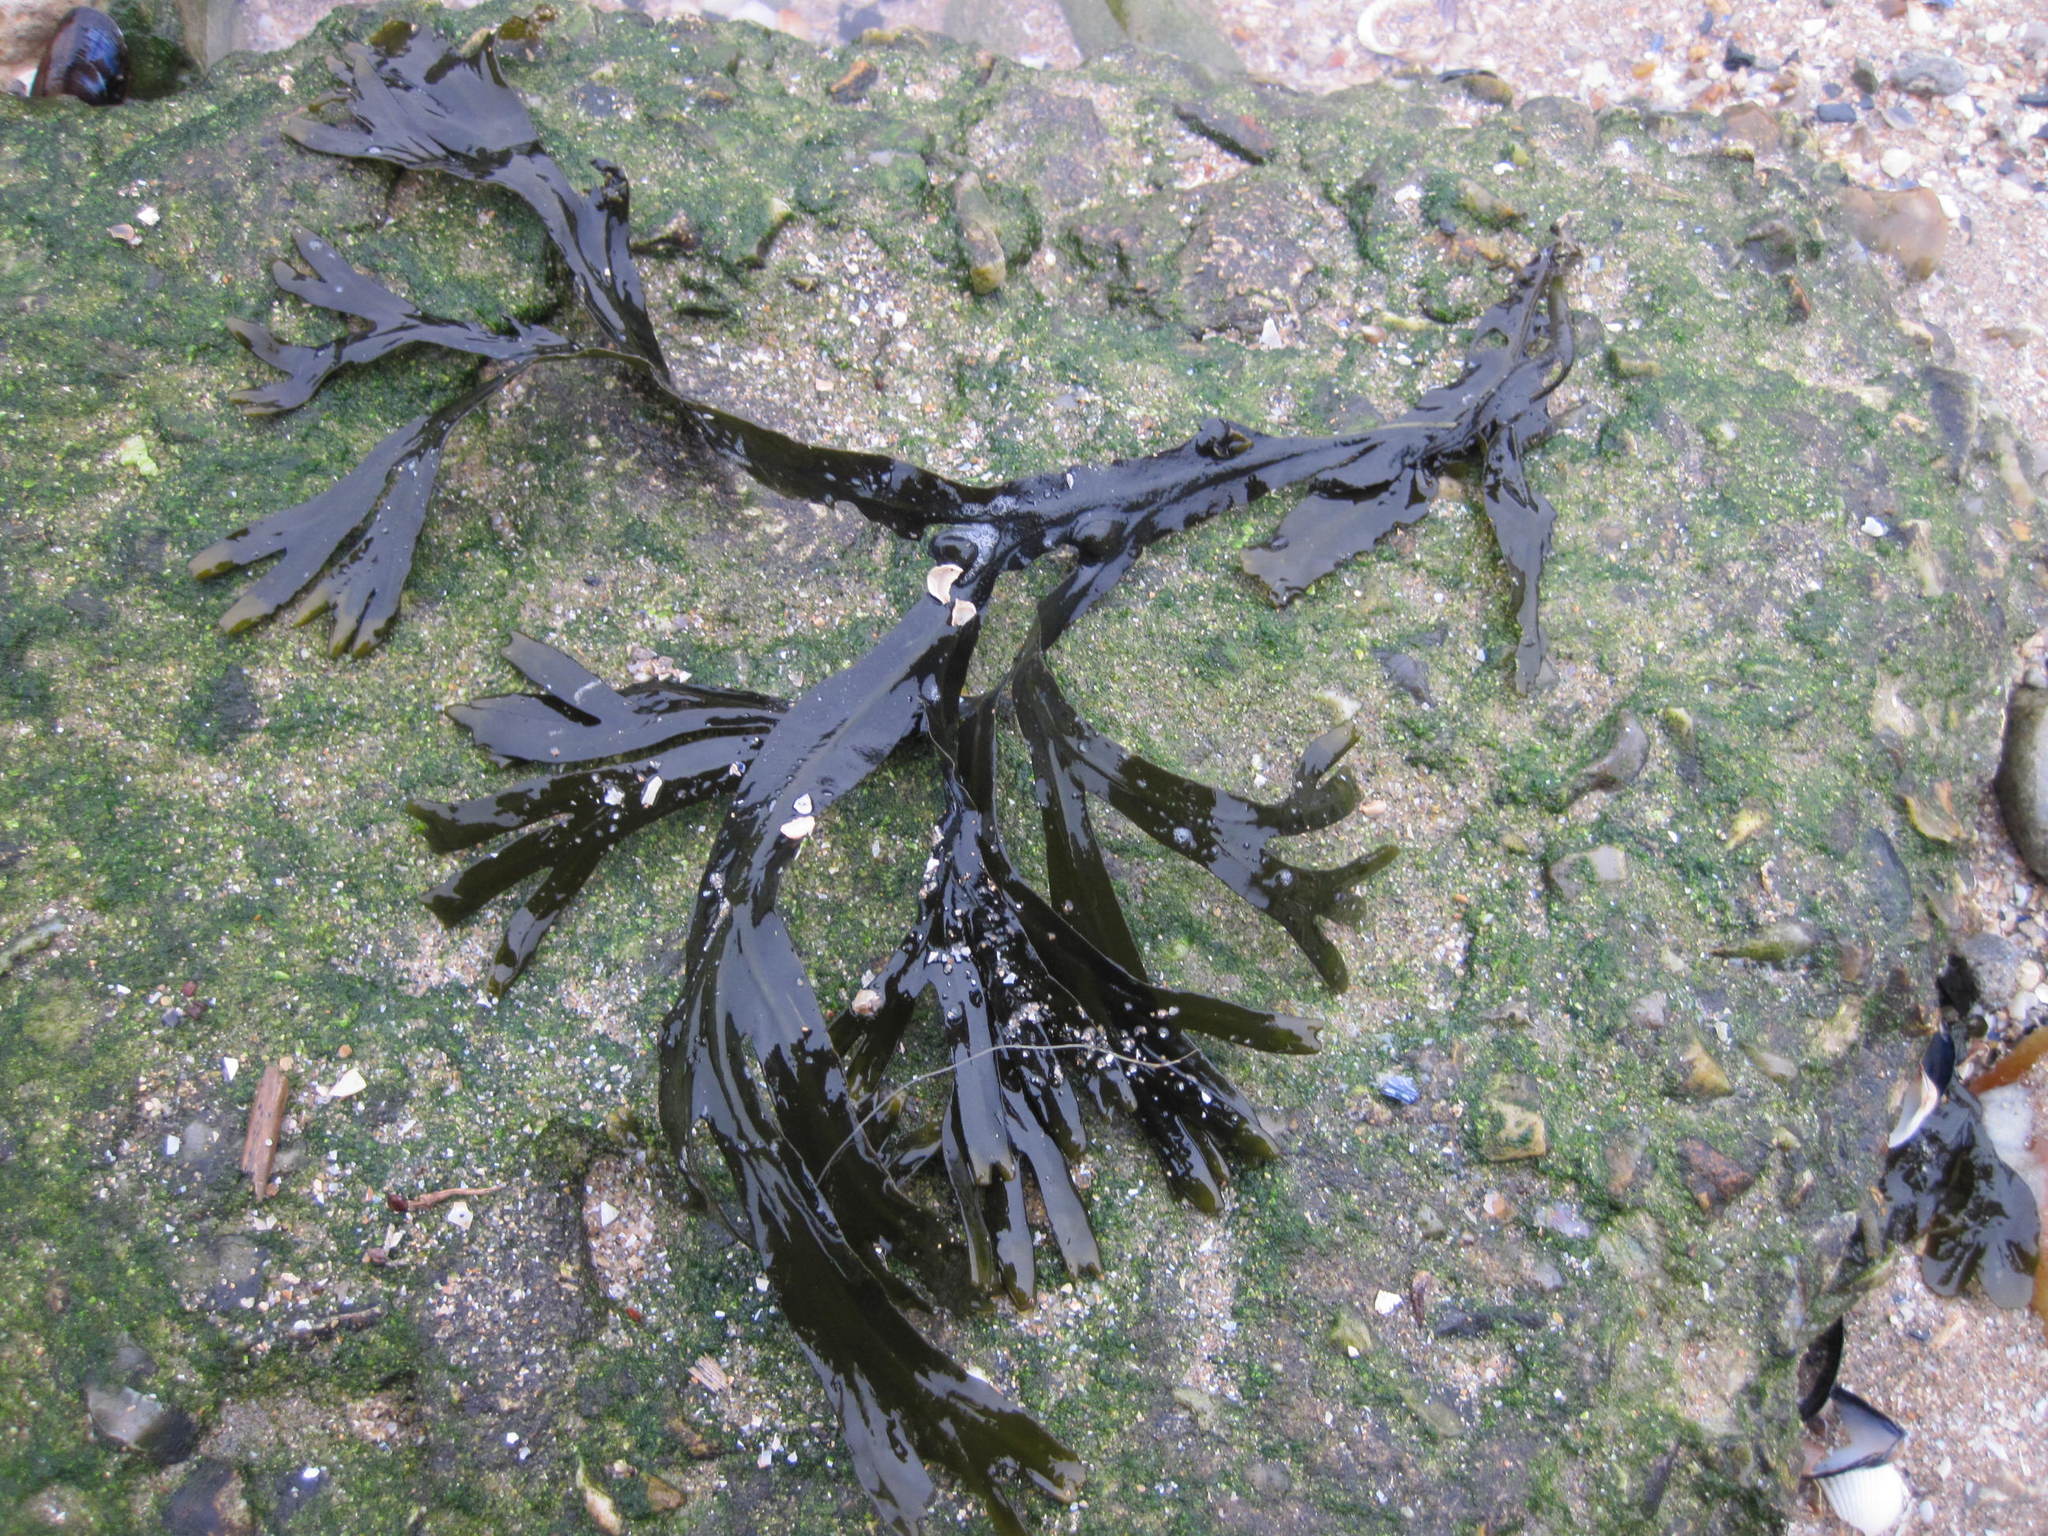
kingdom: Chromista
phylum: Ochrophyta
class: Phaeophyceae
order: Fucales
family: Fucaceae
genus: Fucus
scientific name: Fucus vesiculosus
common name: Bladder wrack
